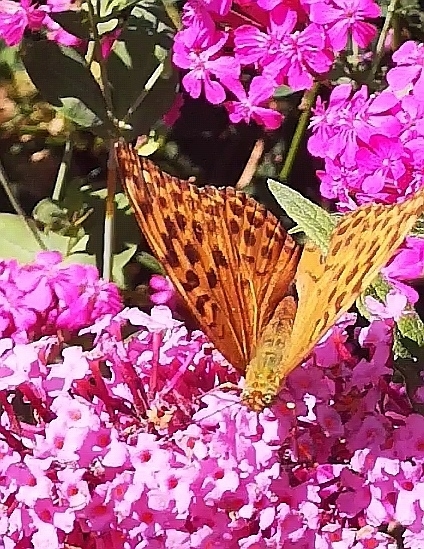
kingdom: Animalia
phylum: Arthropoda
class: Insecta
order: Lepidoptera
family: Nymphalidae
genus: Argynnis
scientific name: Argynnis paphia
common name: Silver-washed fritillary
